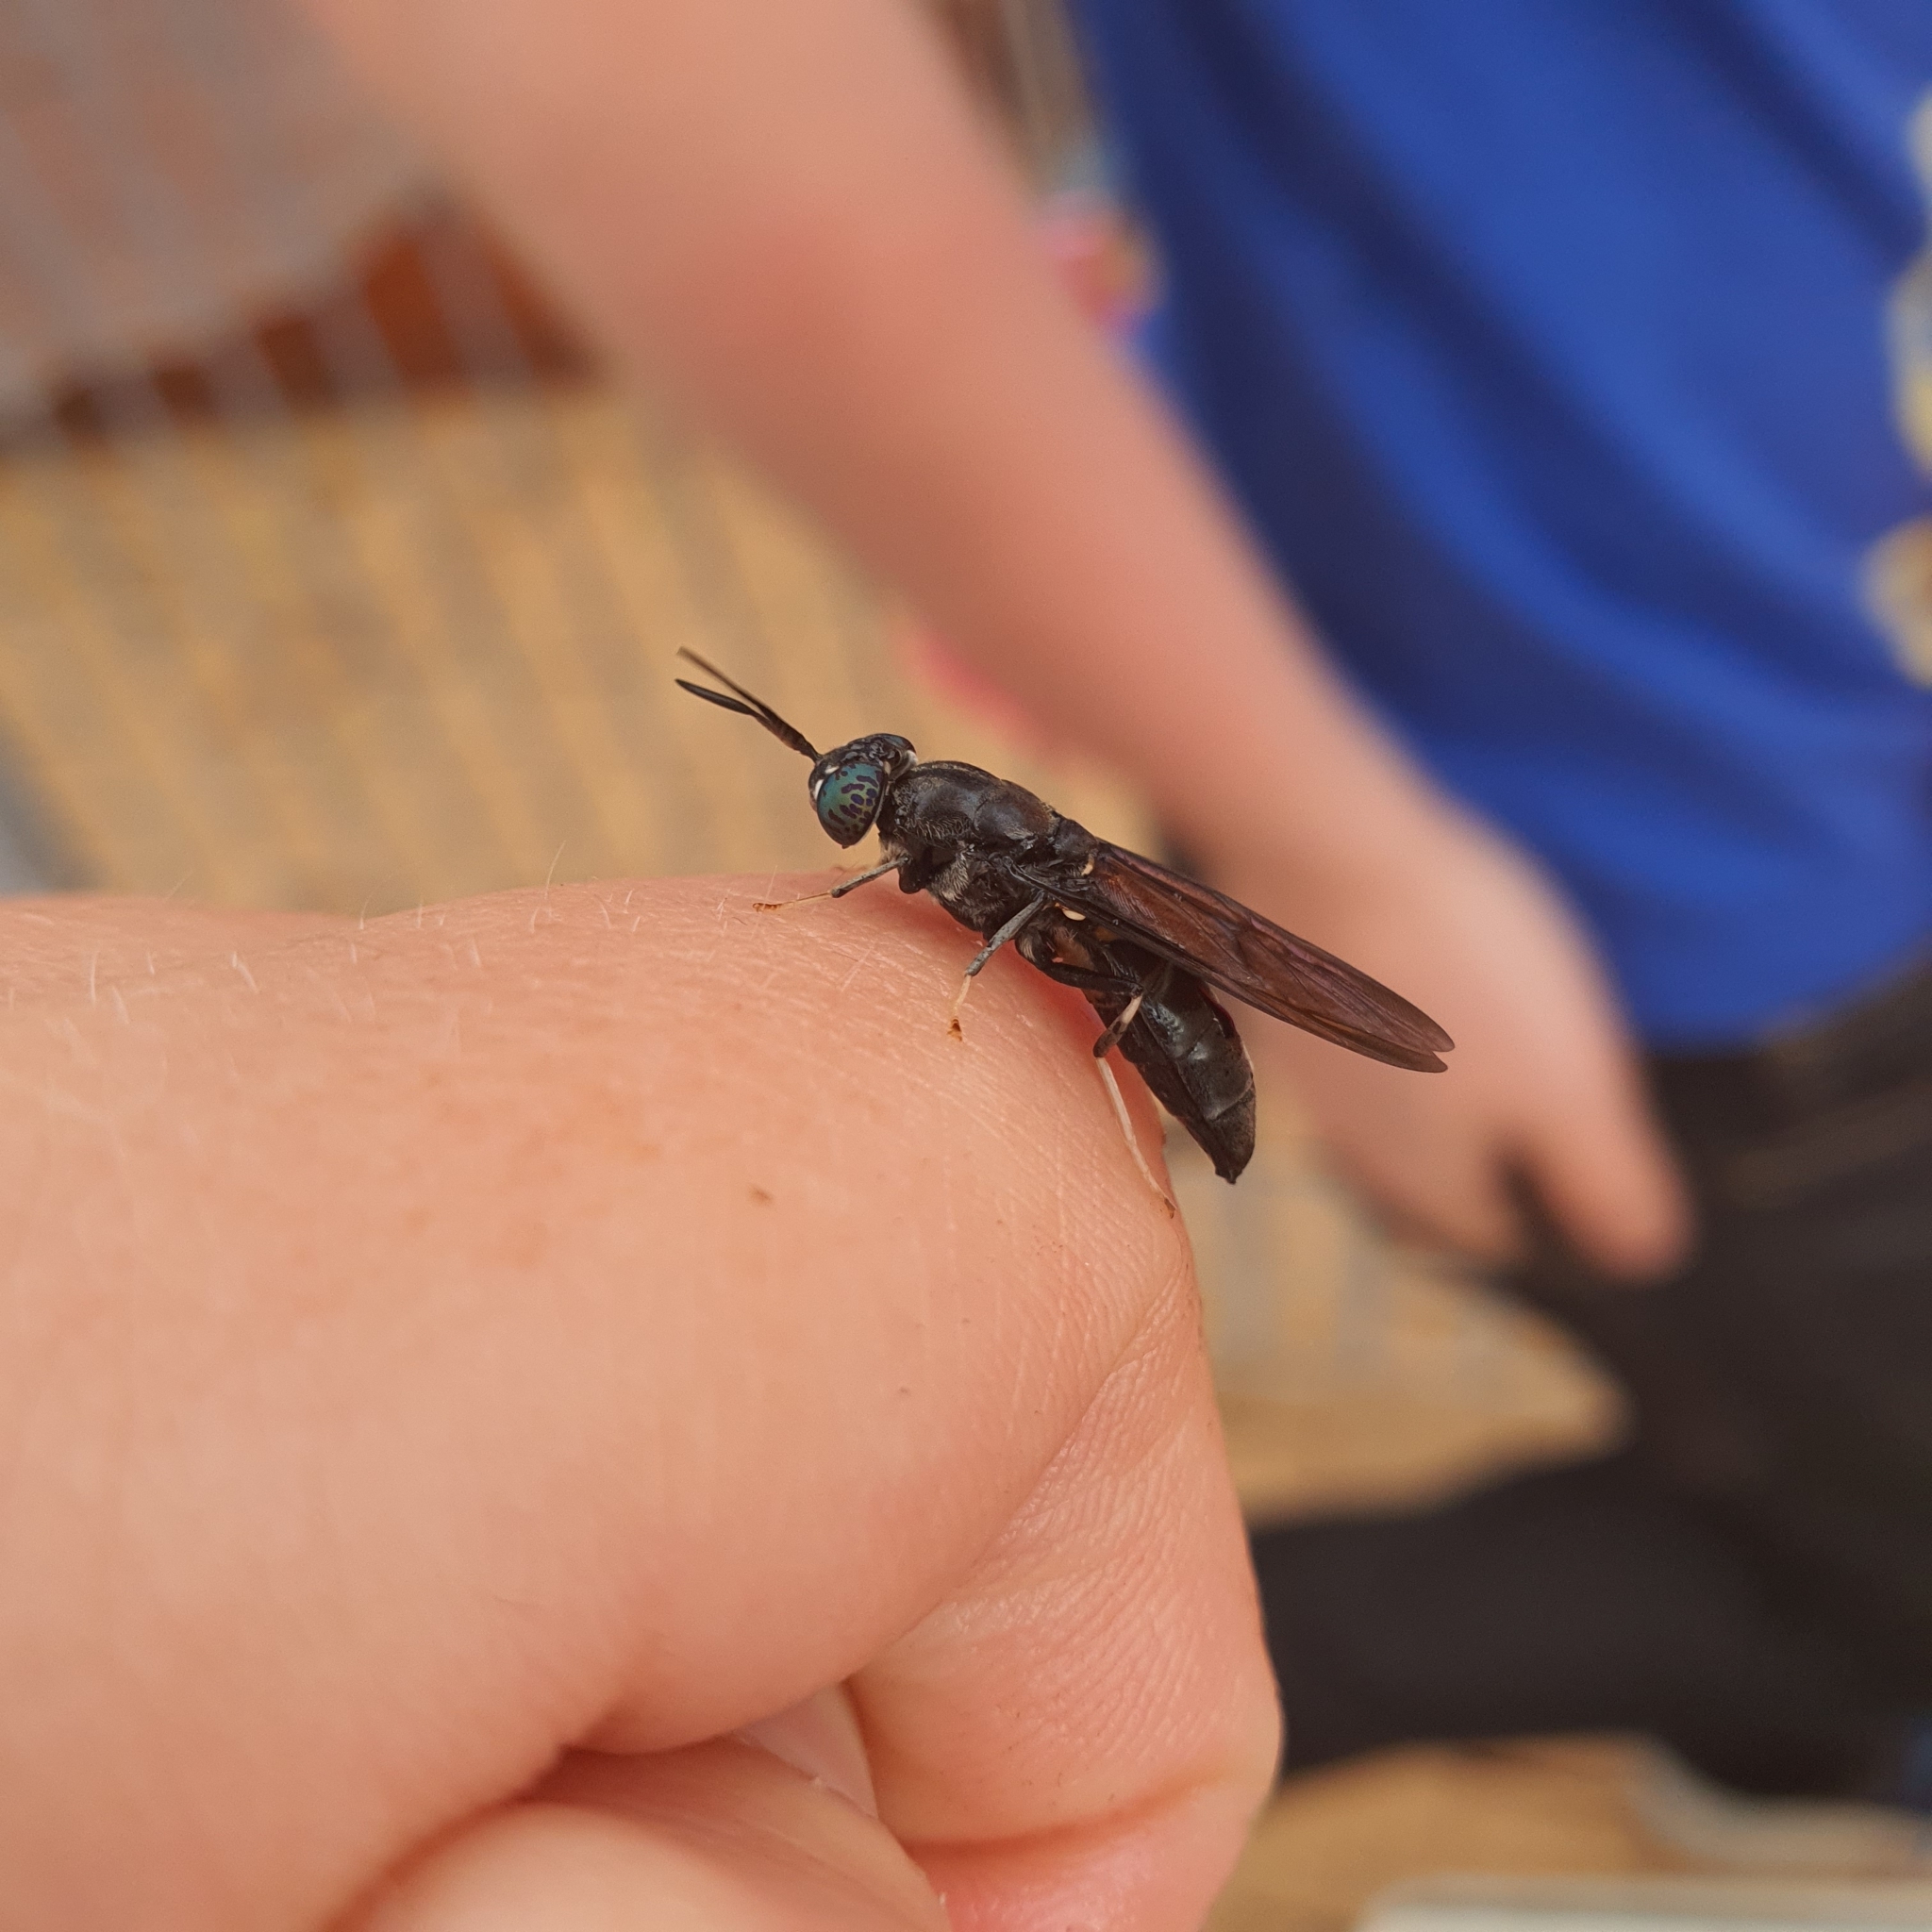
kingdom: Animalia
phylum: Arthropoda
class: Insecta
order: Diptera
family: Stratiomyidae
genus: Hermetia
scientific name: Hermetia illucens
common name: Black soldier fly
